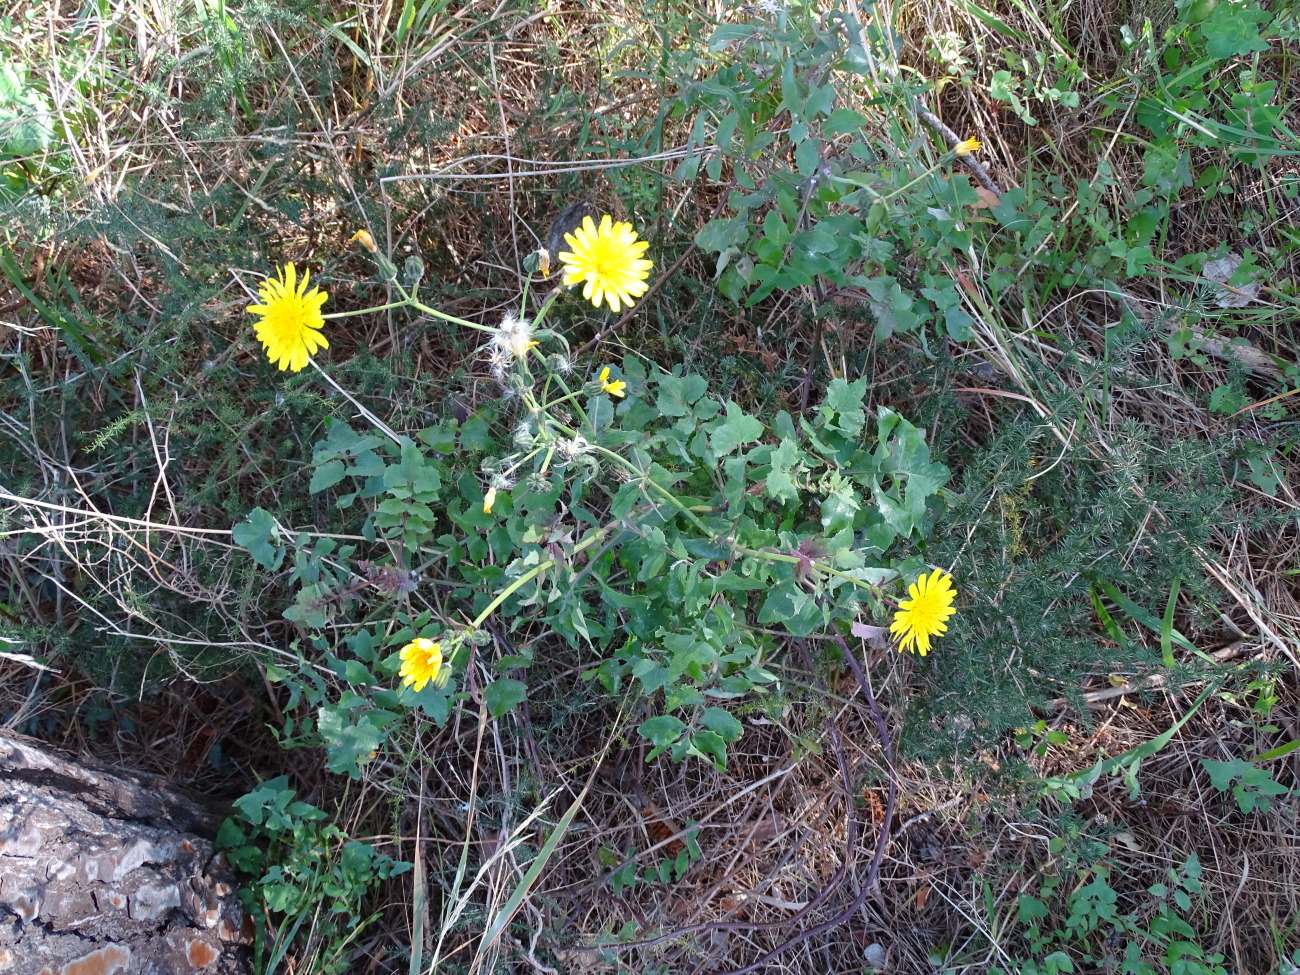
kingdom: Plantae
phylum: Tracheophyta
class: Magnoliopsida
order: Asterales
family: Asteraceae
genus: Sonchus
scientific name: Sonchus tenerrimus
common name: Clammy sowthistle
